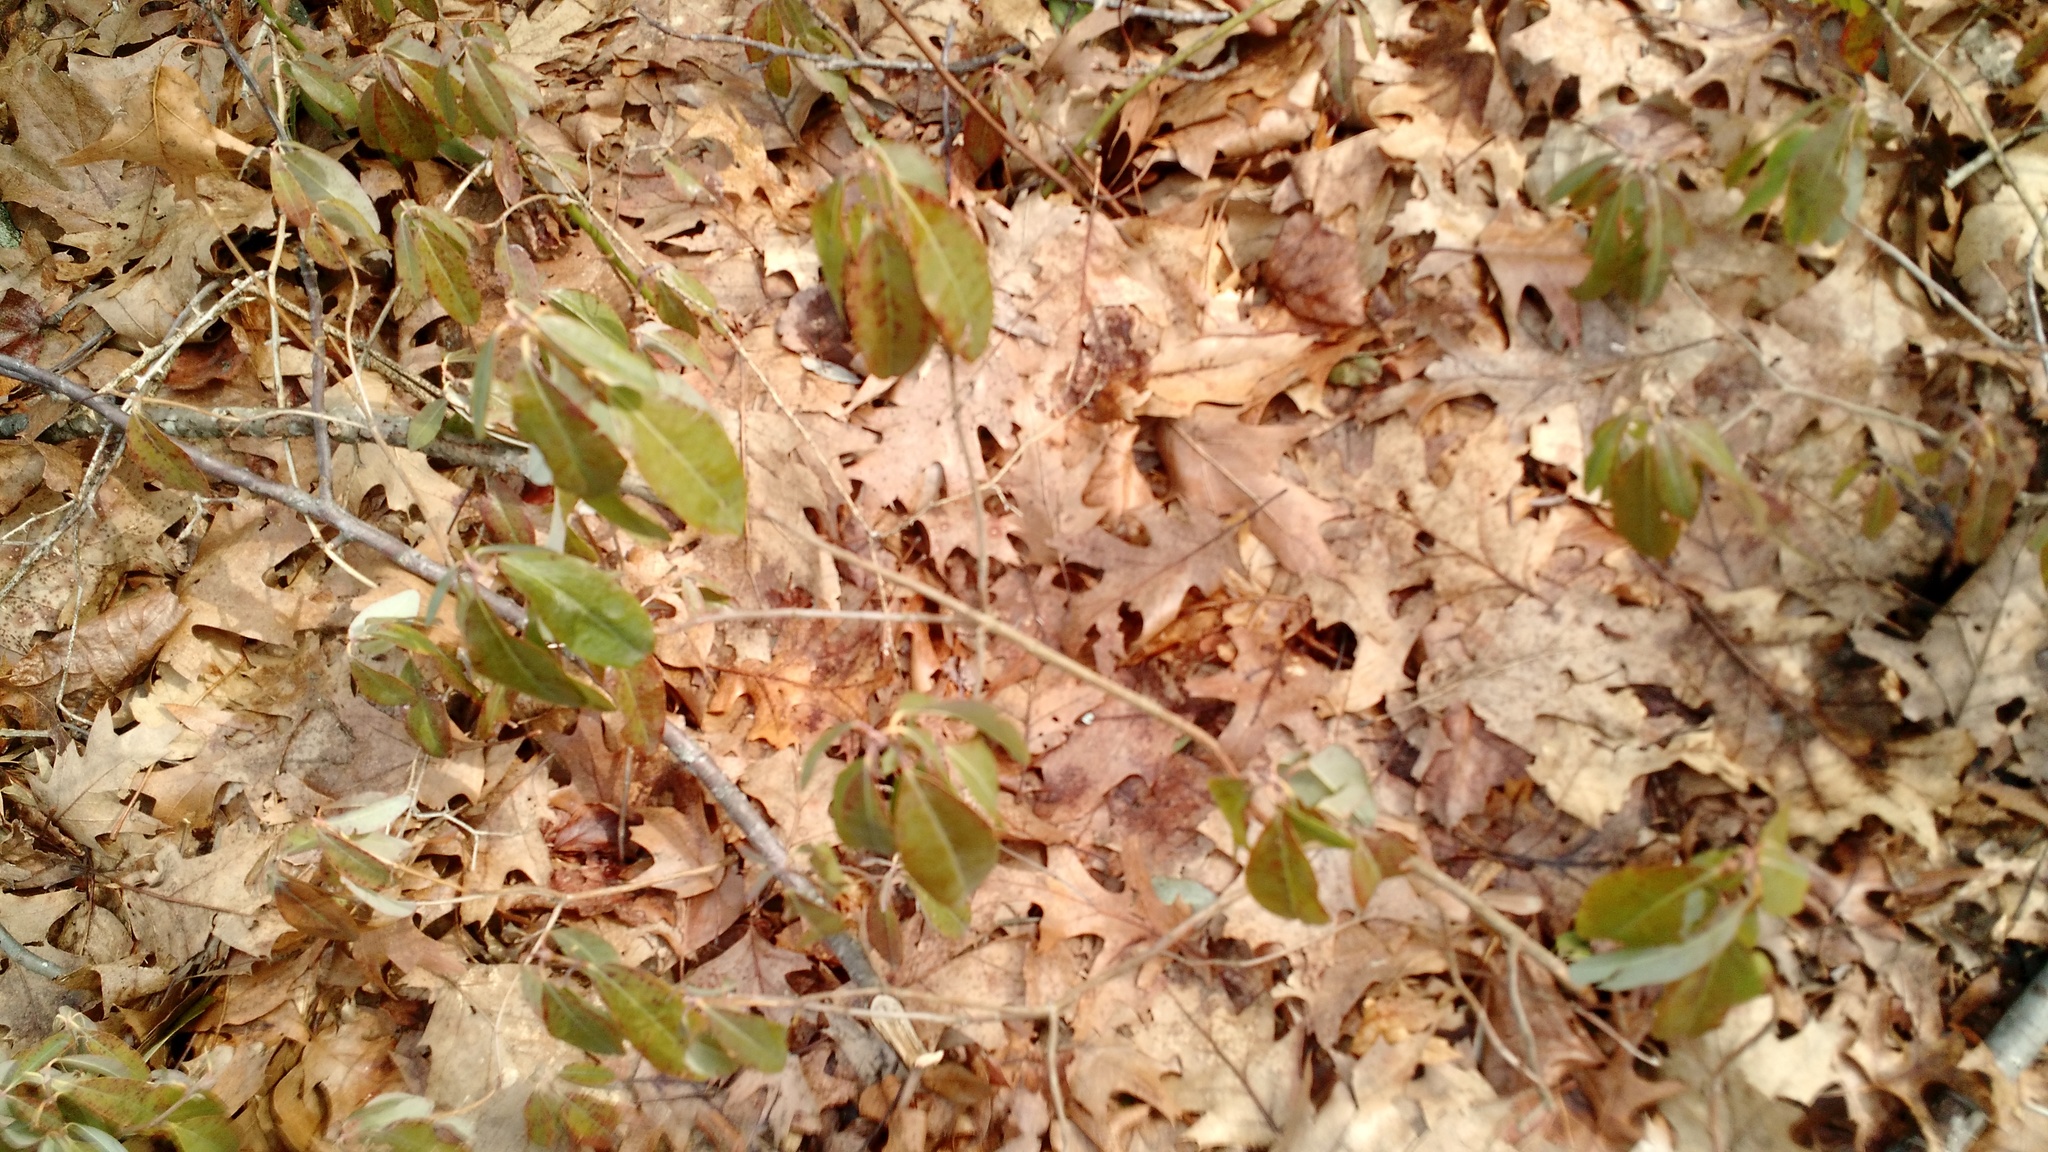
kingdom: Plantae
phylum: Tracheophyta
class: Magnoliopsida
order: Ericales
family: Ericaceae
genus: Kalmia
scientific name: Kalmia angustifolia
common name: Sheep-laurel
